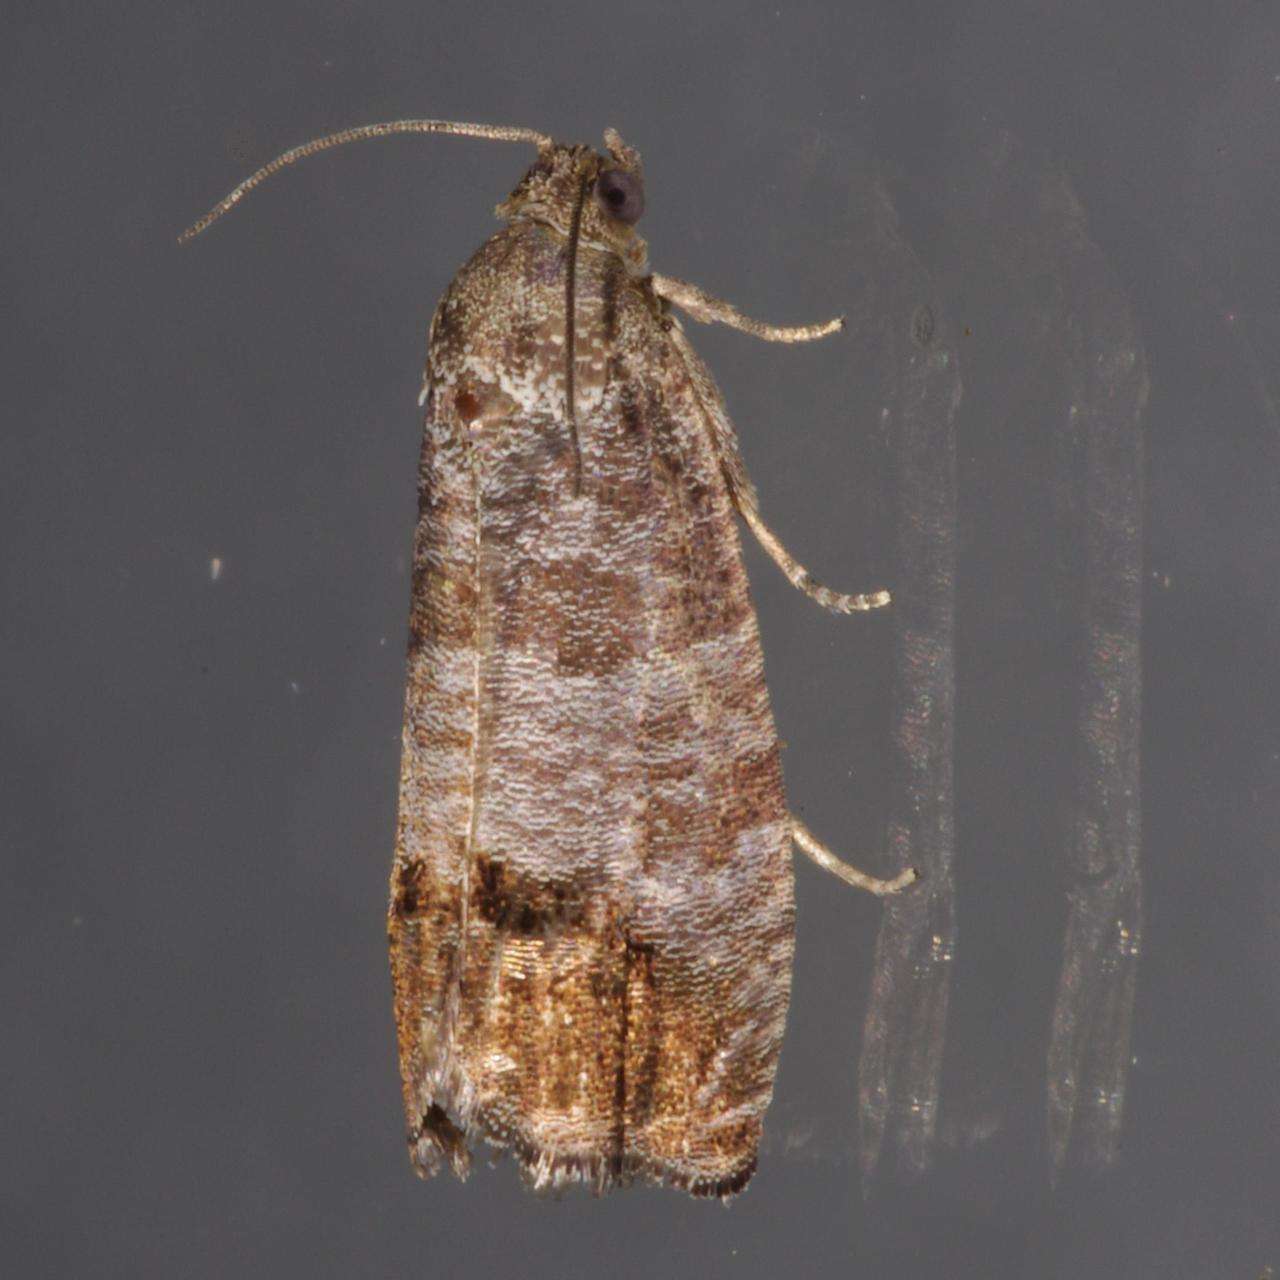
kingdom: Animalia
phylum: Arthropoda
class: Insecta
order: Lepidoptera
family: Tortricidae
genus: Cydia
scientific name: Cydia pomonella
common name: Codling moth
